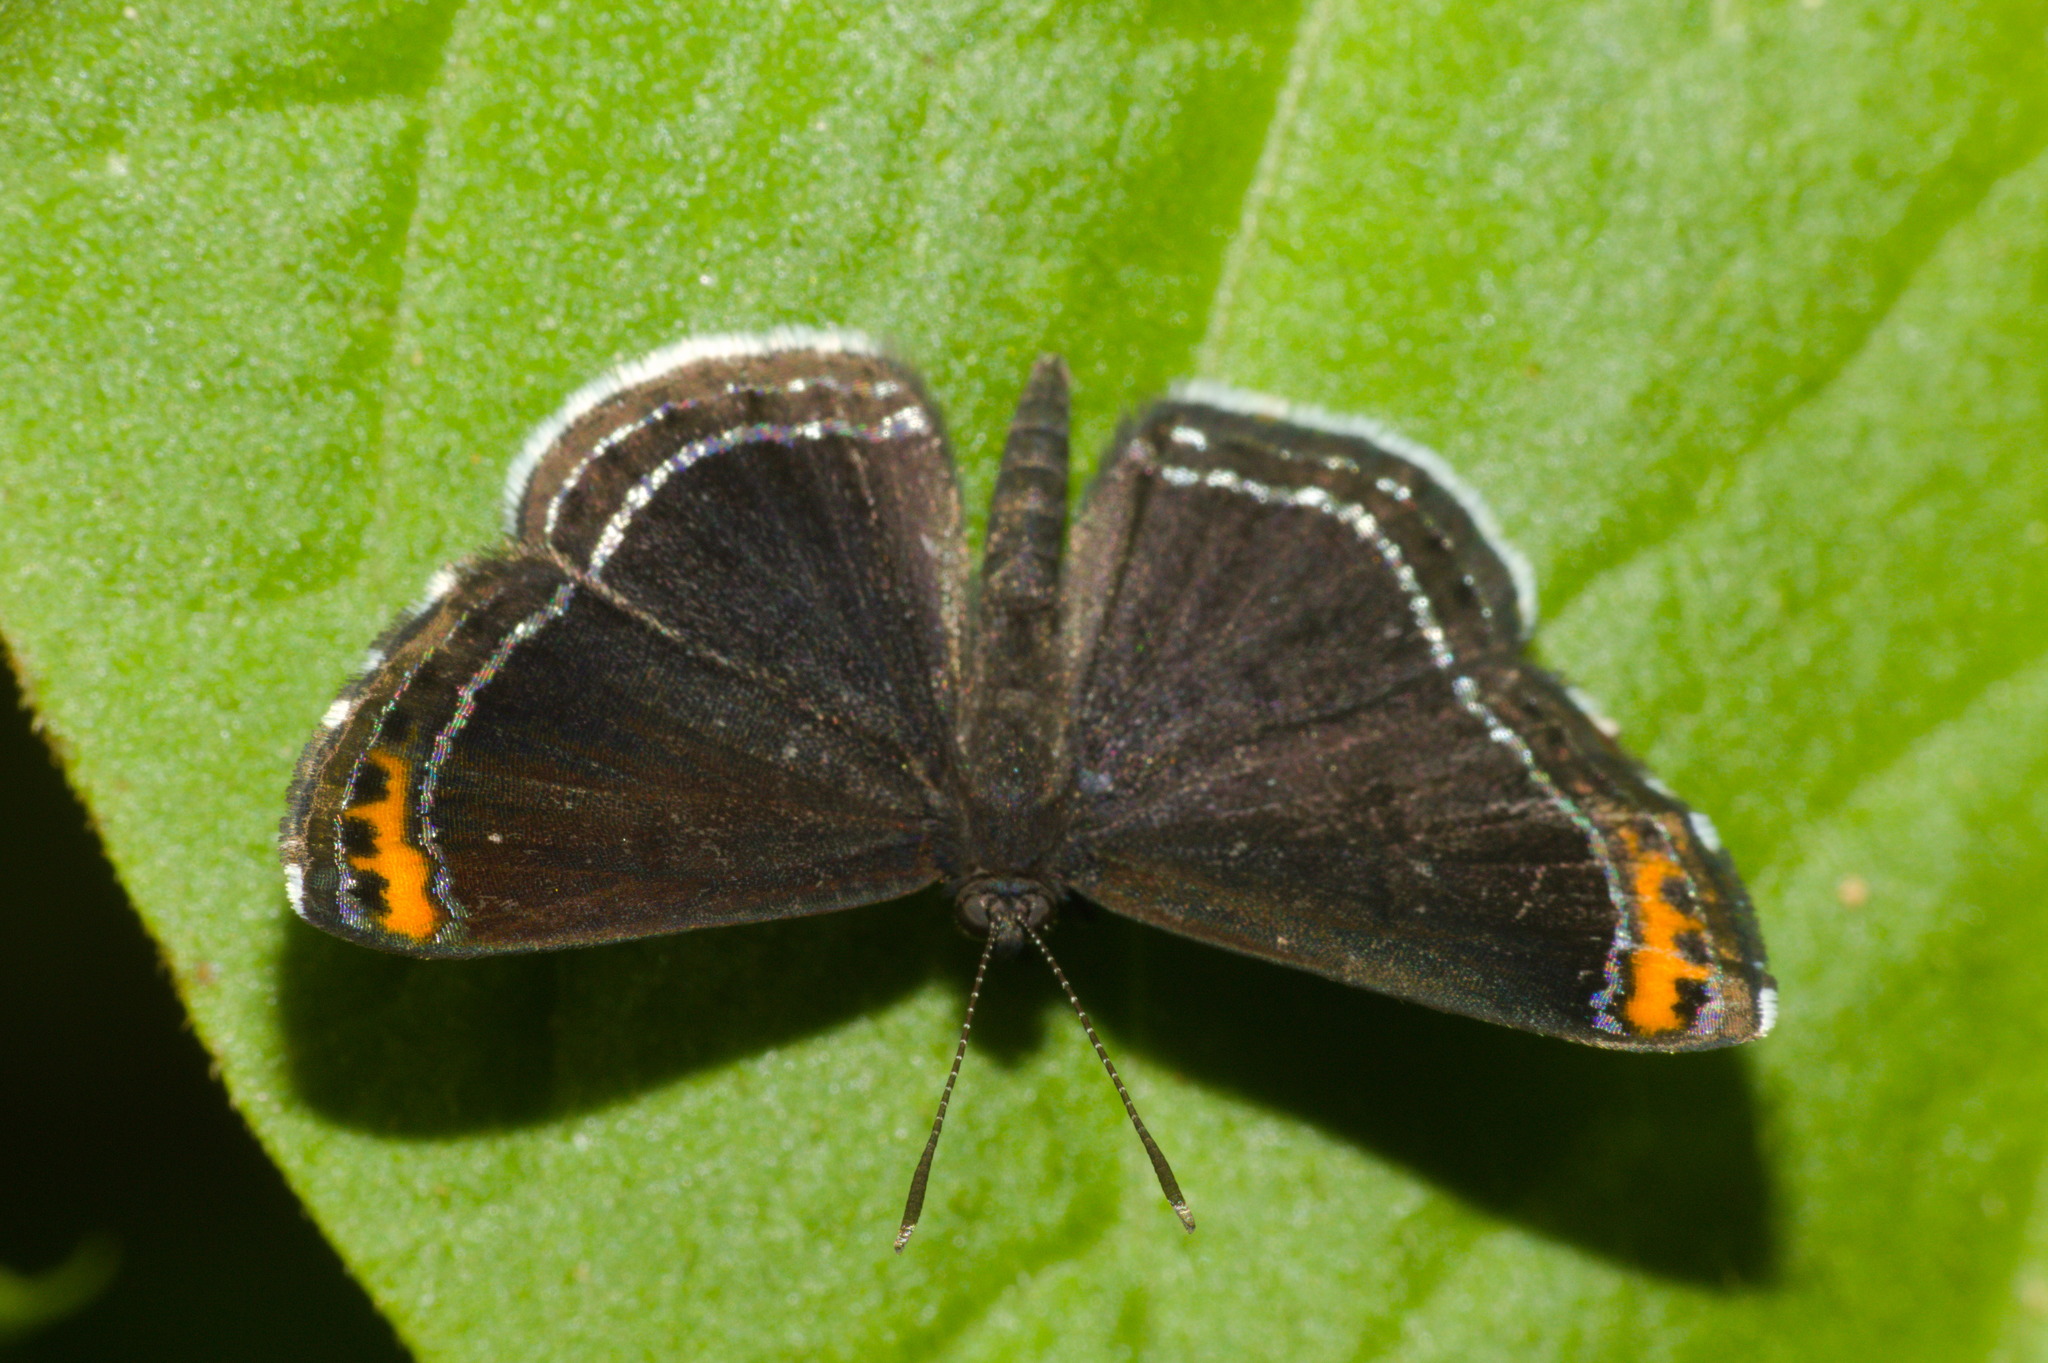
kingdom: Animalia
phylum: Arthropoda
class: Insecta
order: Lepidoptera
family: Riodinidae
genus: Nelone
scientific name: Nelone cadmeis
